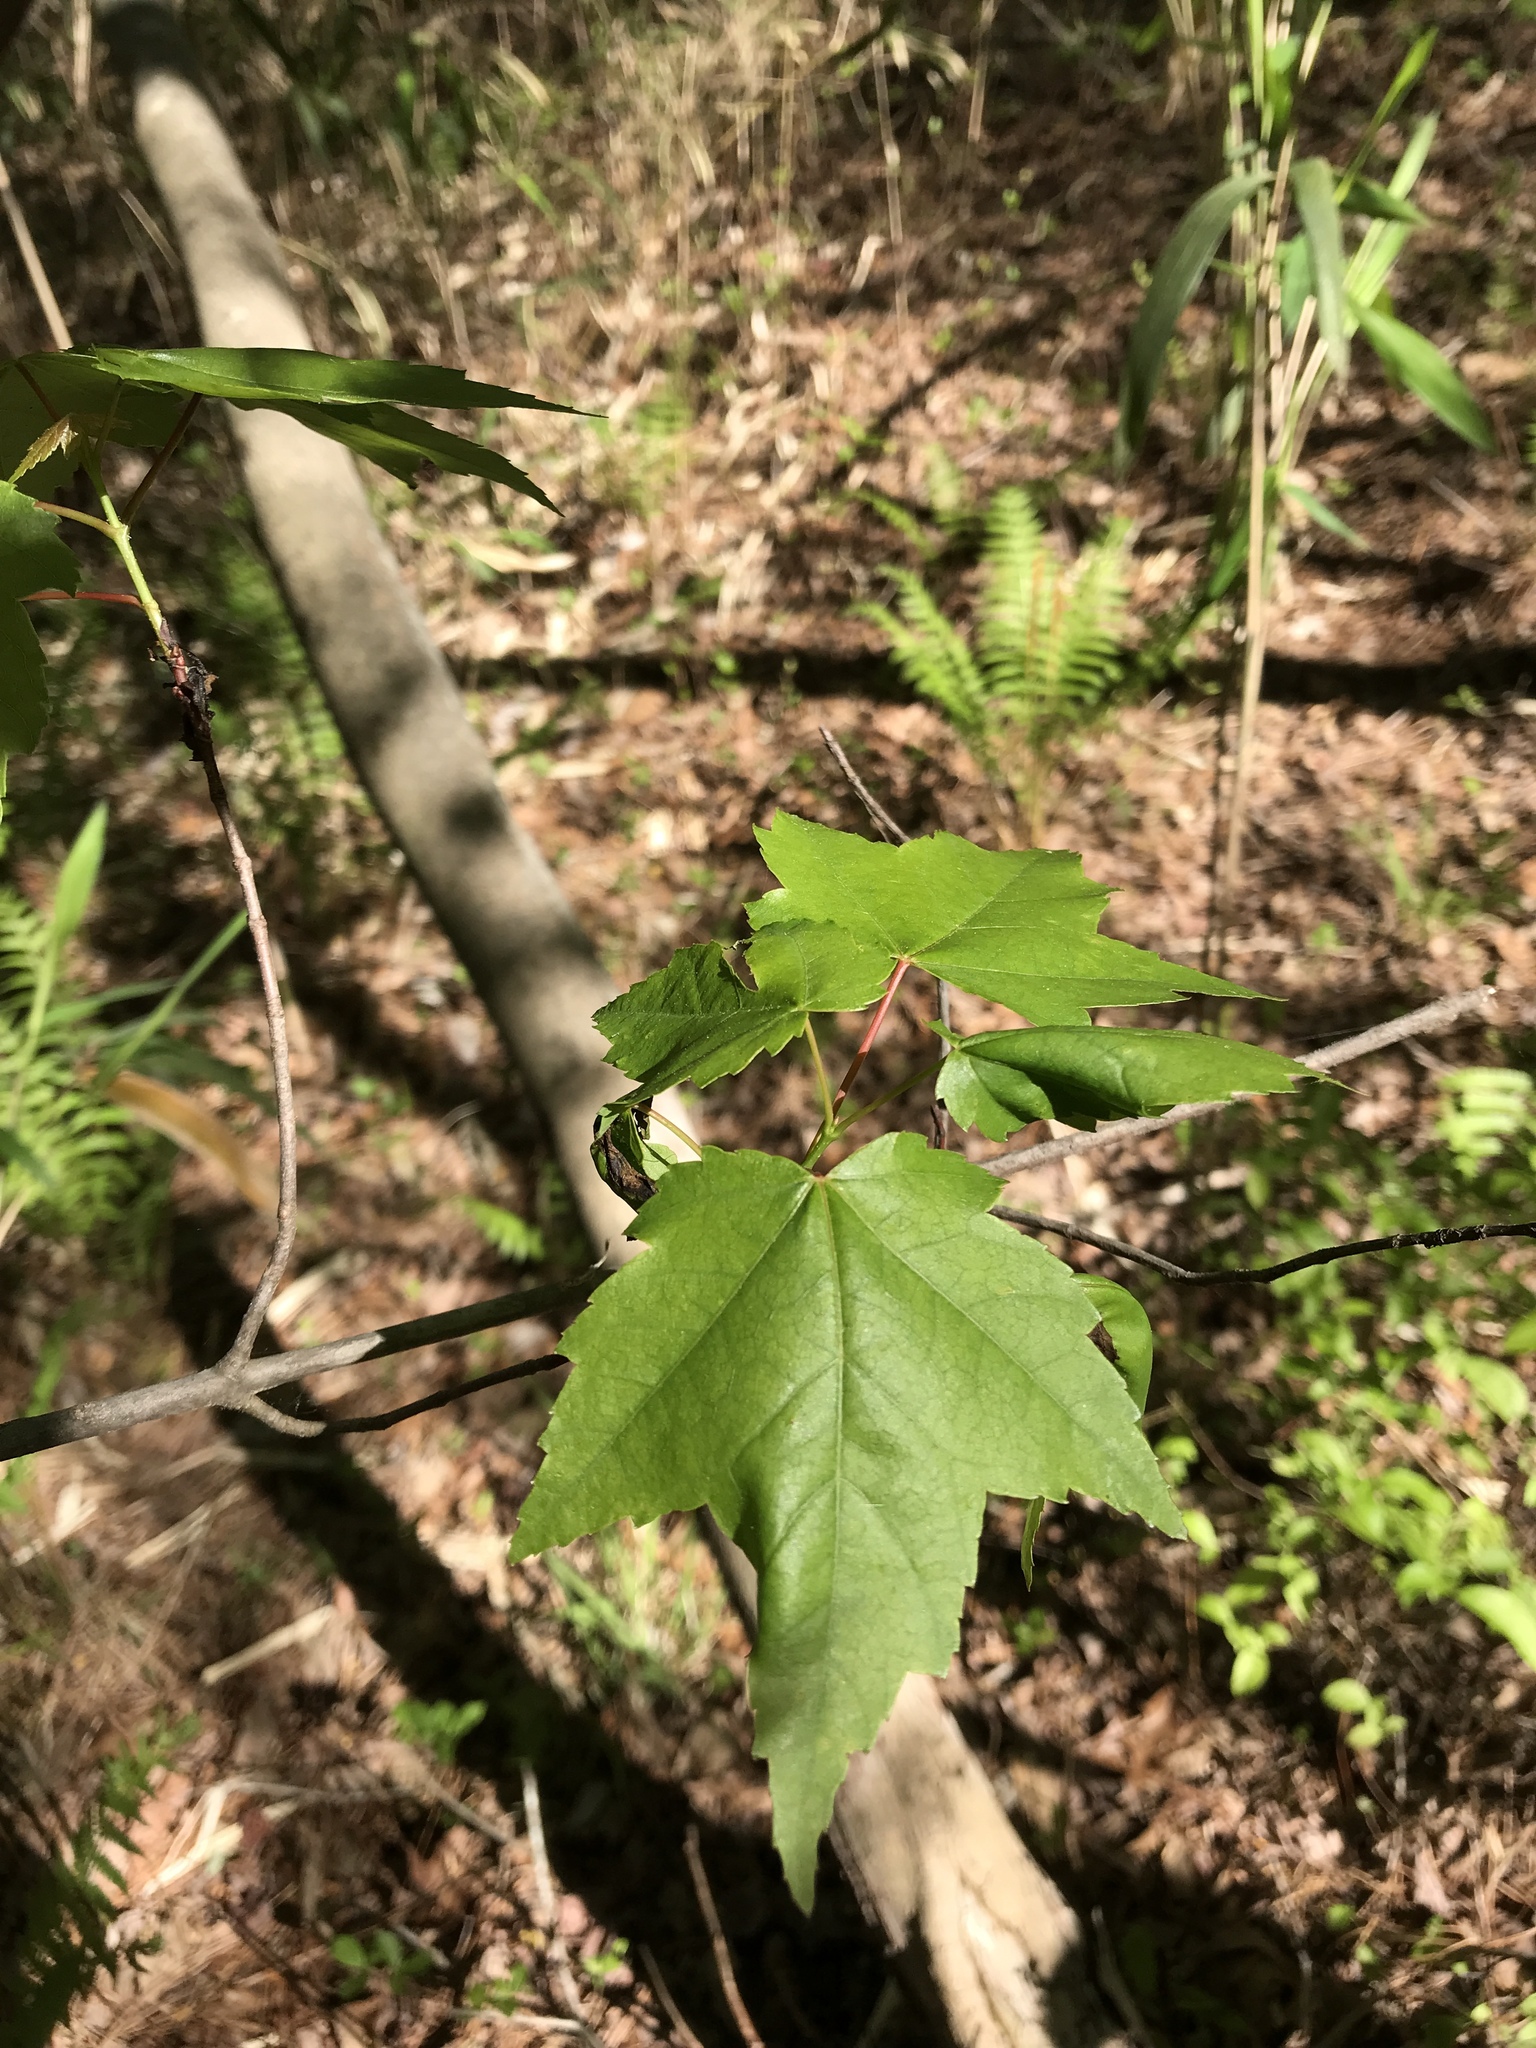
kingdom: Plantae
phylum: Tracheophyta
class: Magnoliopsida
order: Sapindales
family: Sapindaceae
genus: Acer
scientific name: Acer rubrum
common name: Red maple
